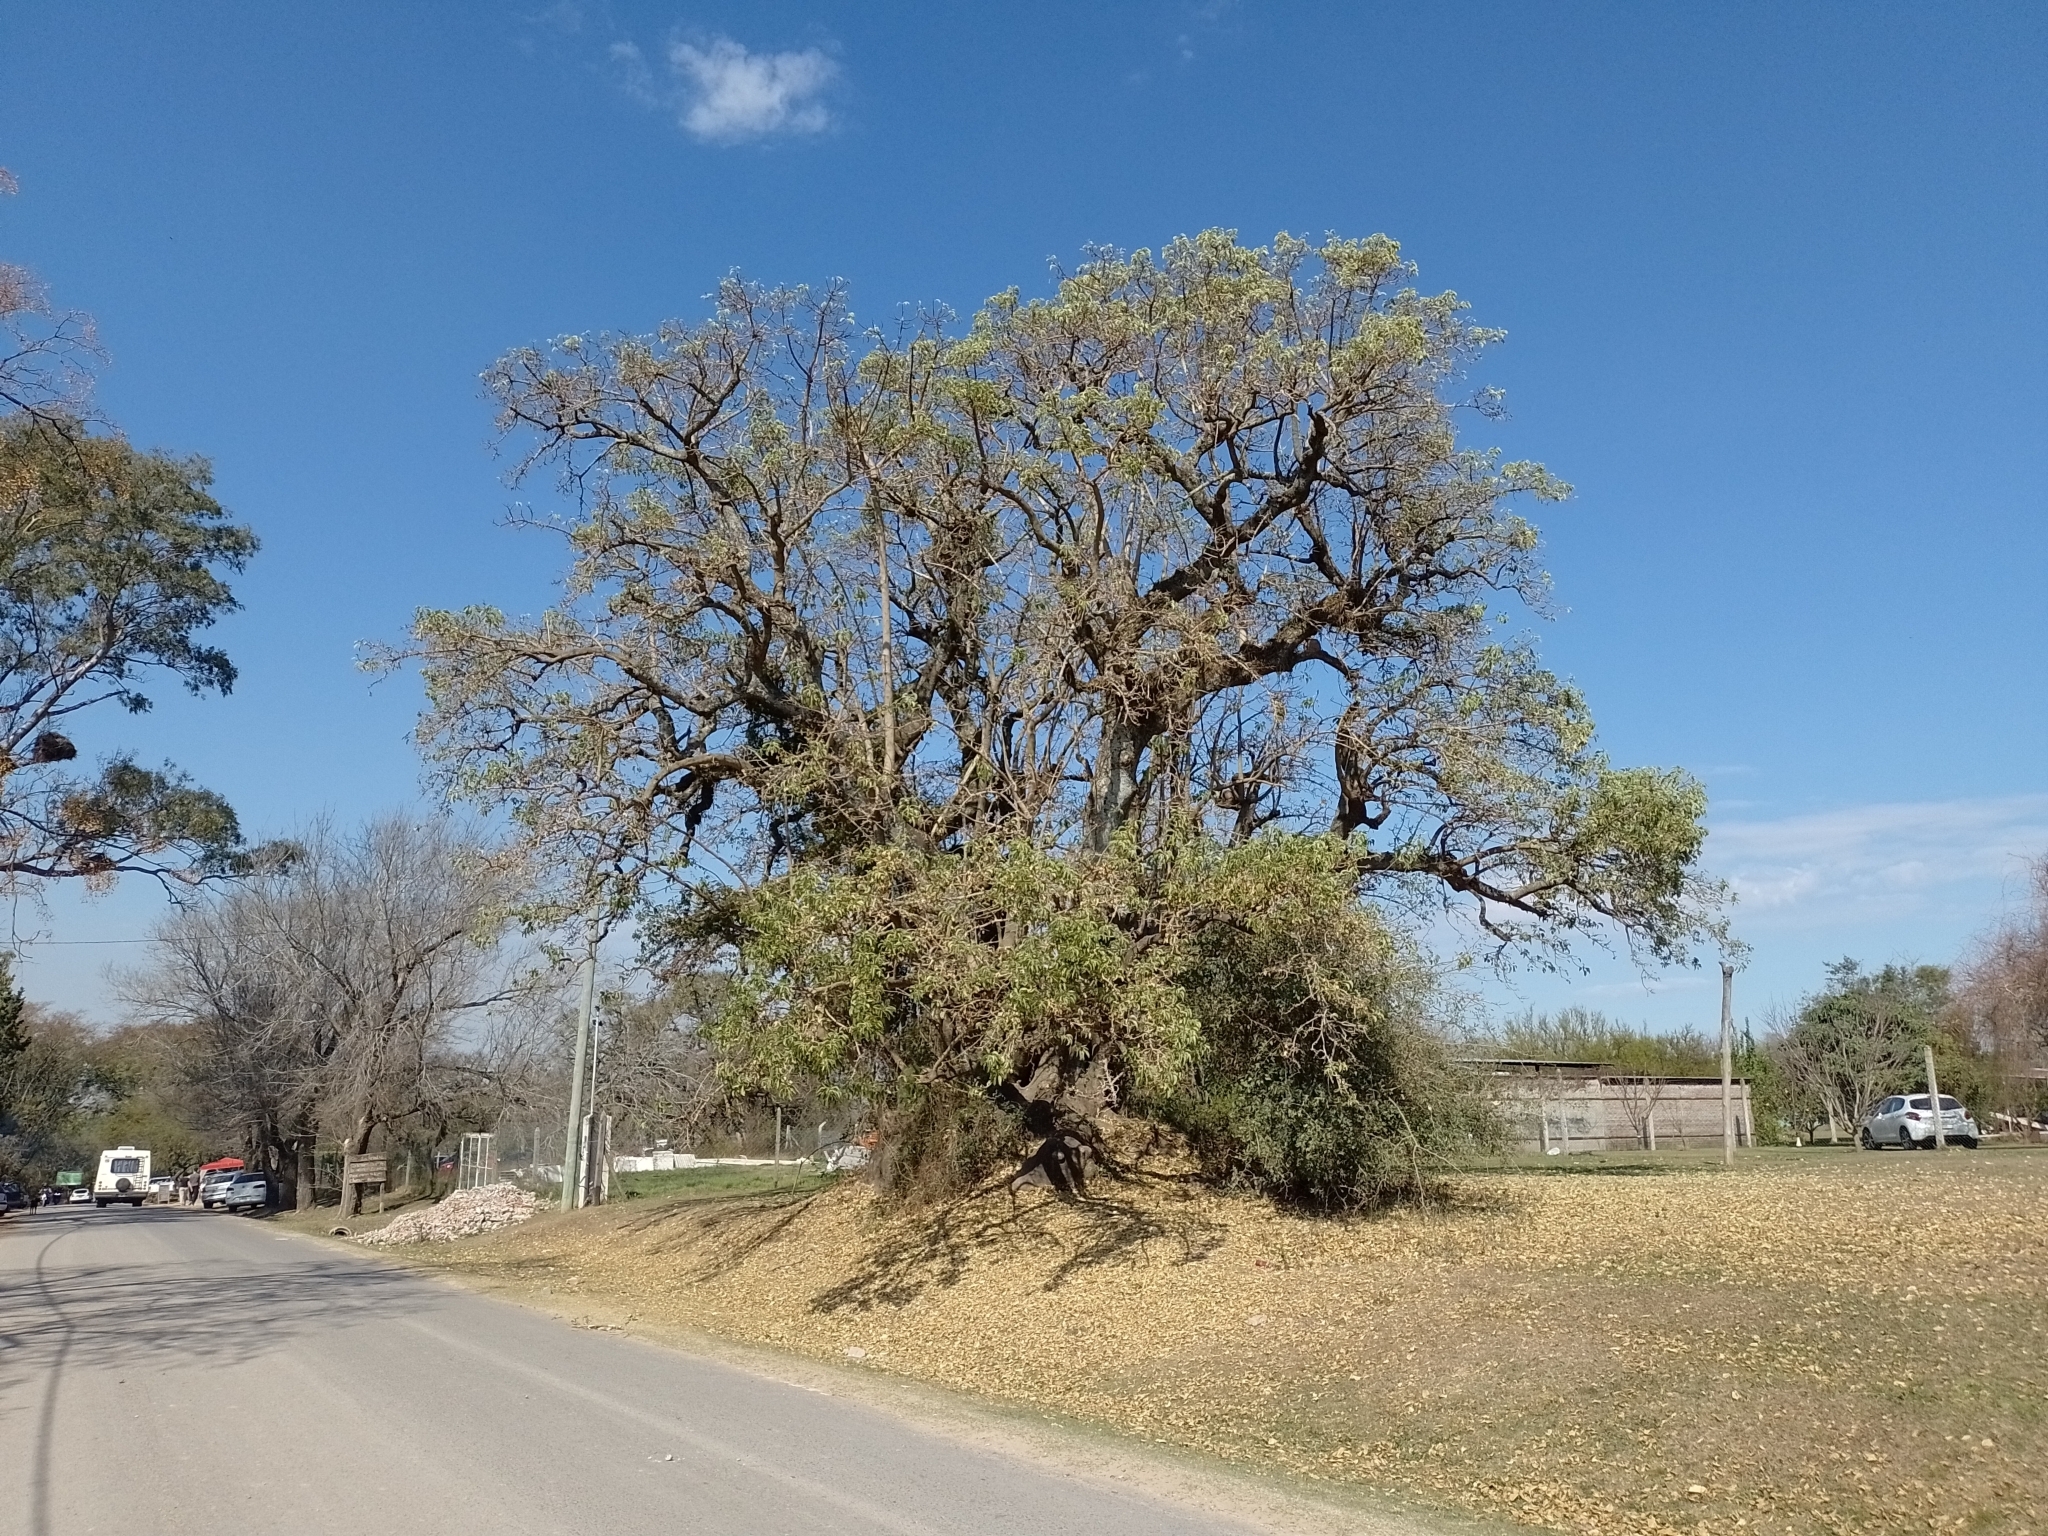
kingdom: Plantae
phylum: Tracheophyta
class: Magnoliopsida
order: Caryophyllales
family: Phytolaccaceae
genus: Phytolacca
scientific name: Phytolacca dioica
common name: Pokeweed
